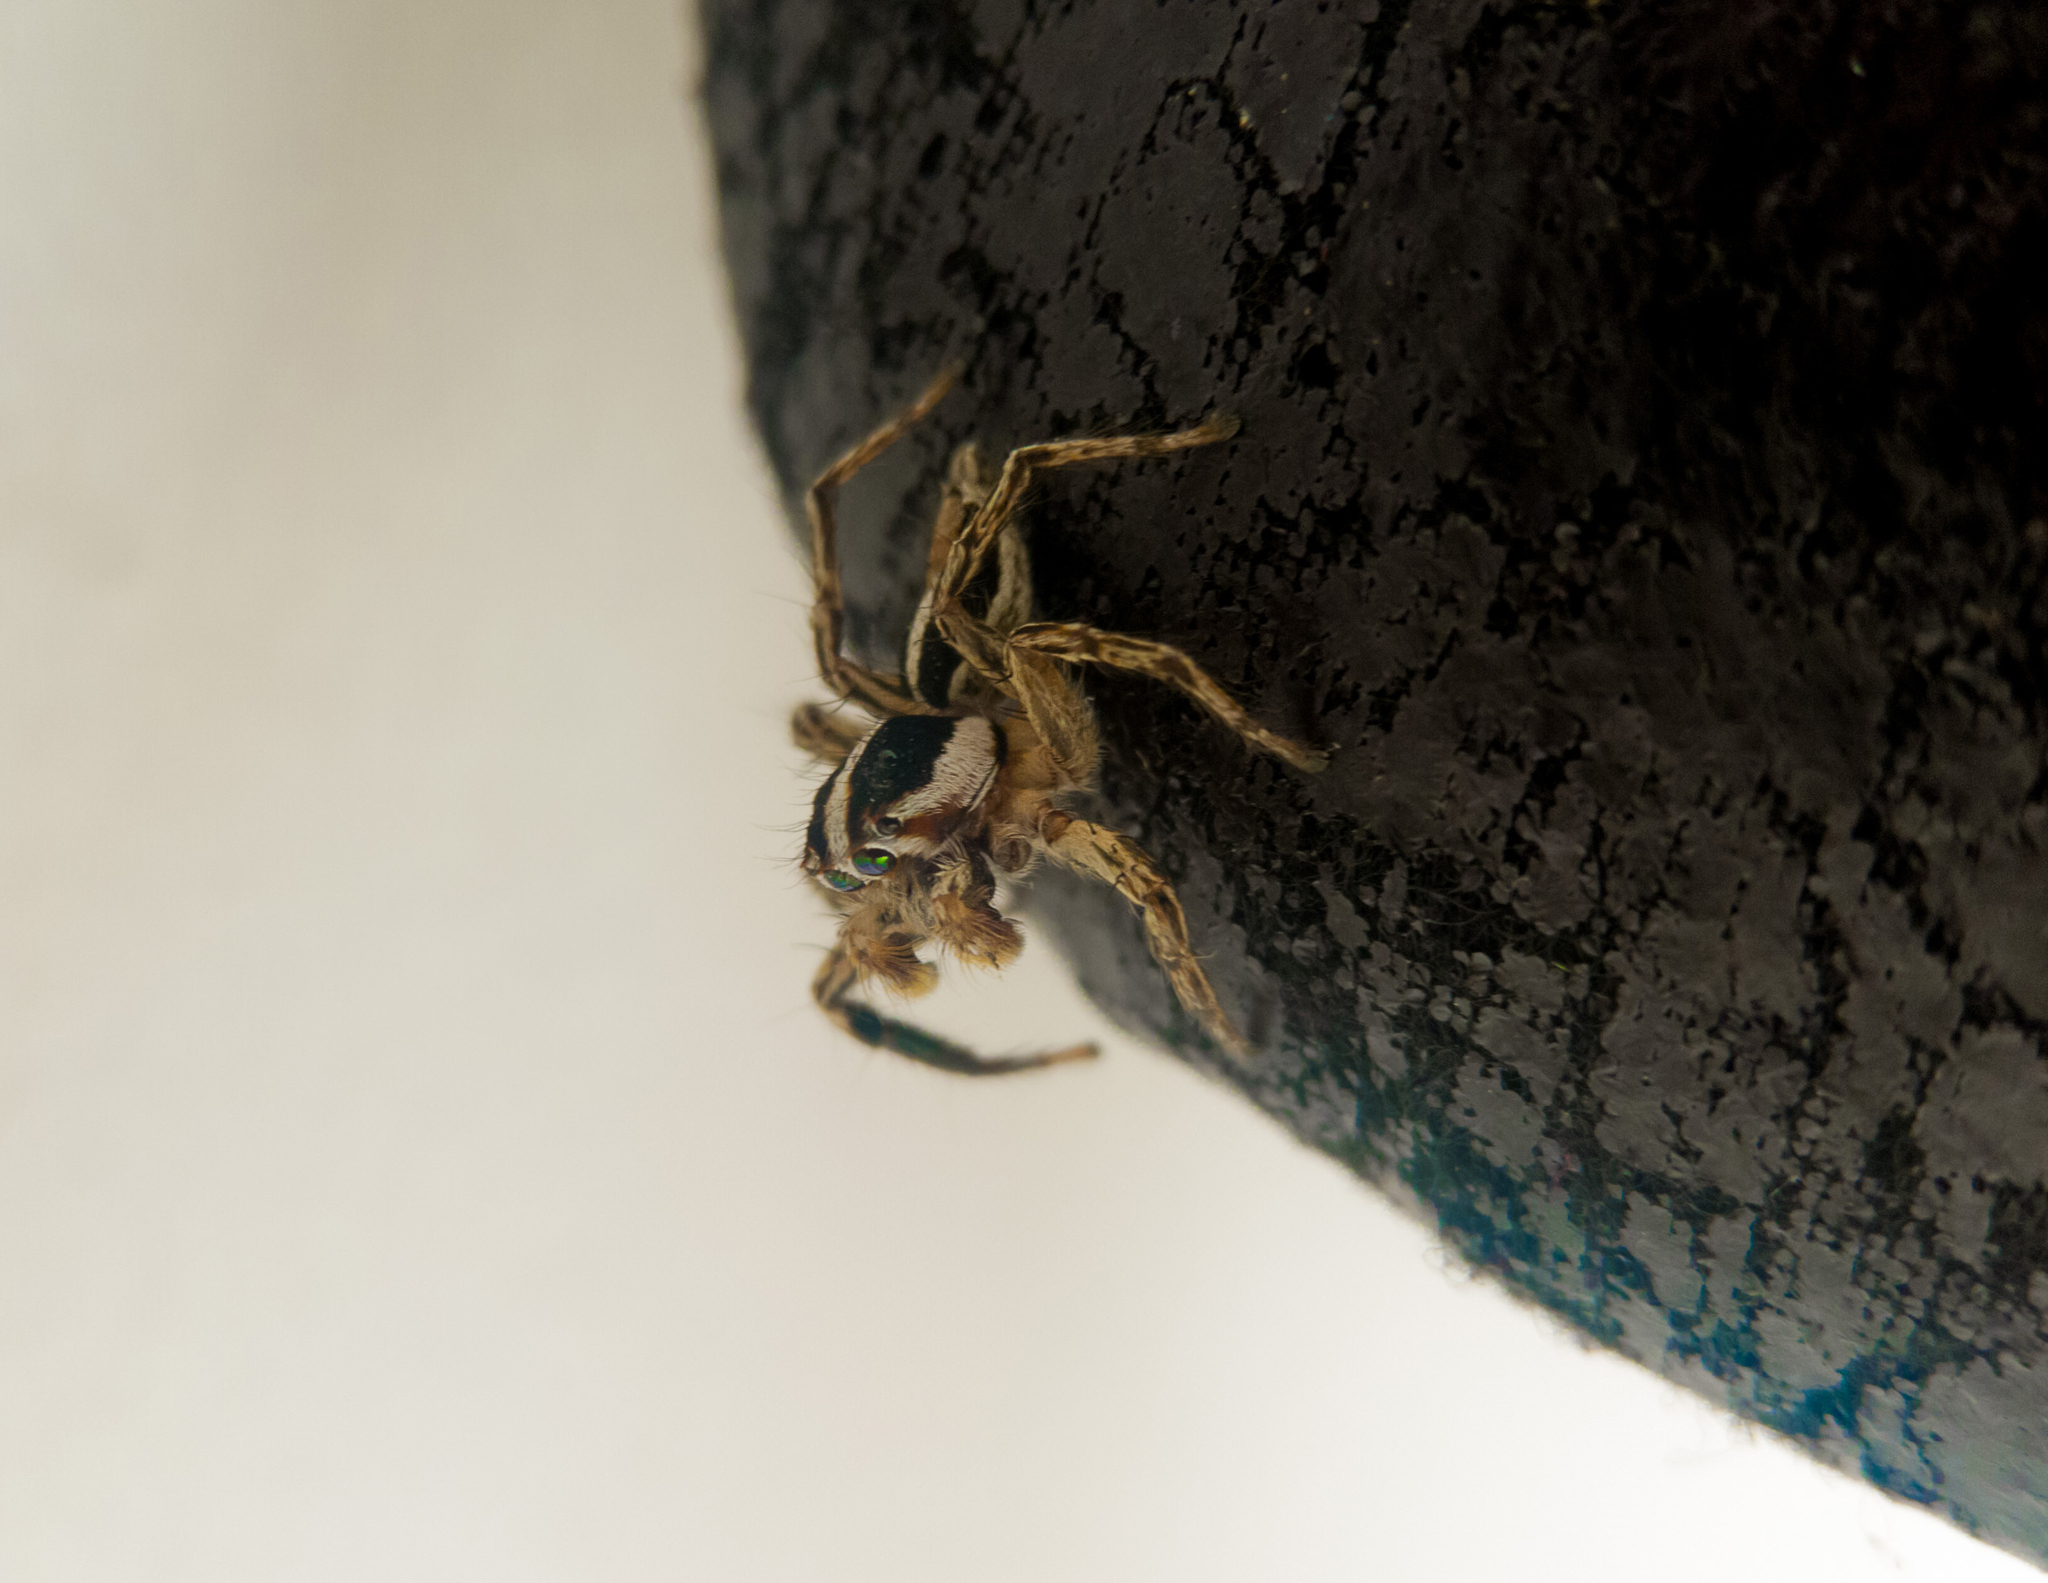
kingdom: Animalia
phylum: Arthropoda
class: Arachnida
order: Araneae
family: Salticidae
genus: Plexippus
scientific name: Plexippus paykulli
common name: Pantropical jumper
